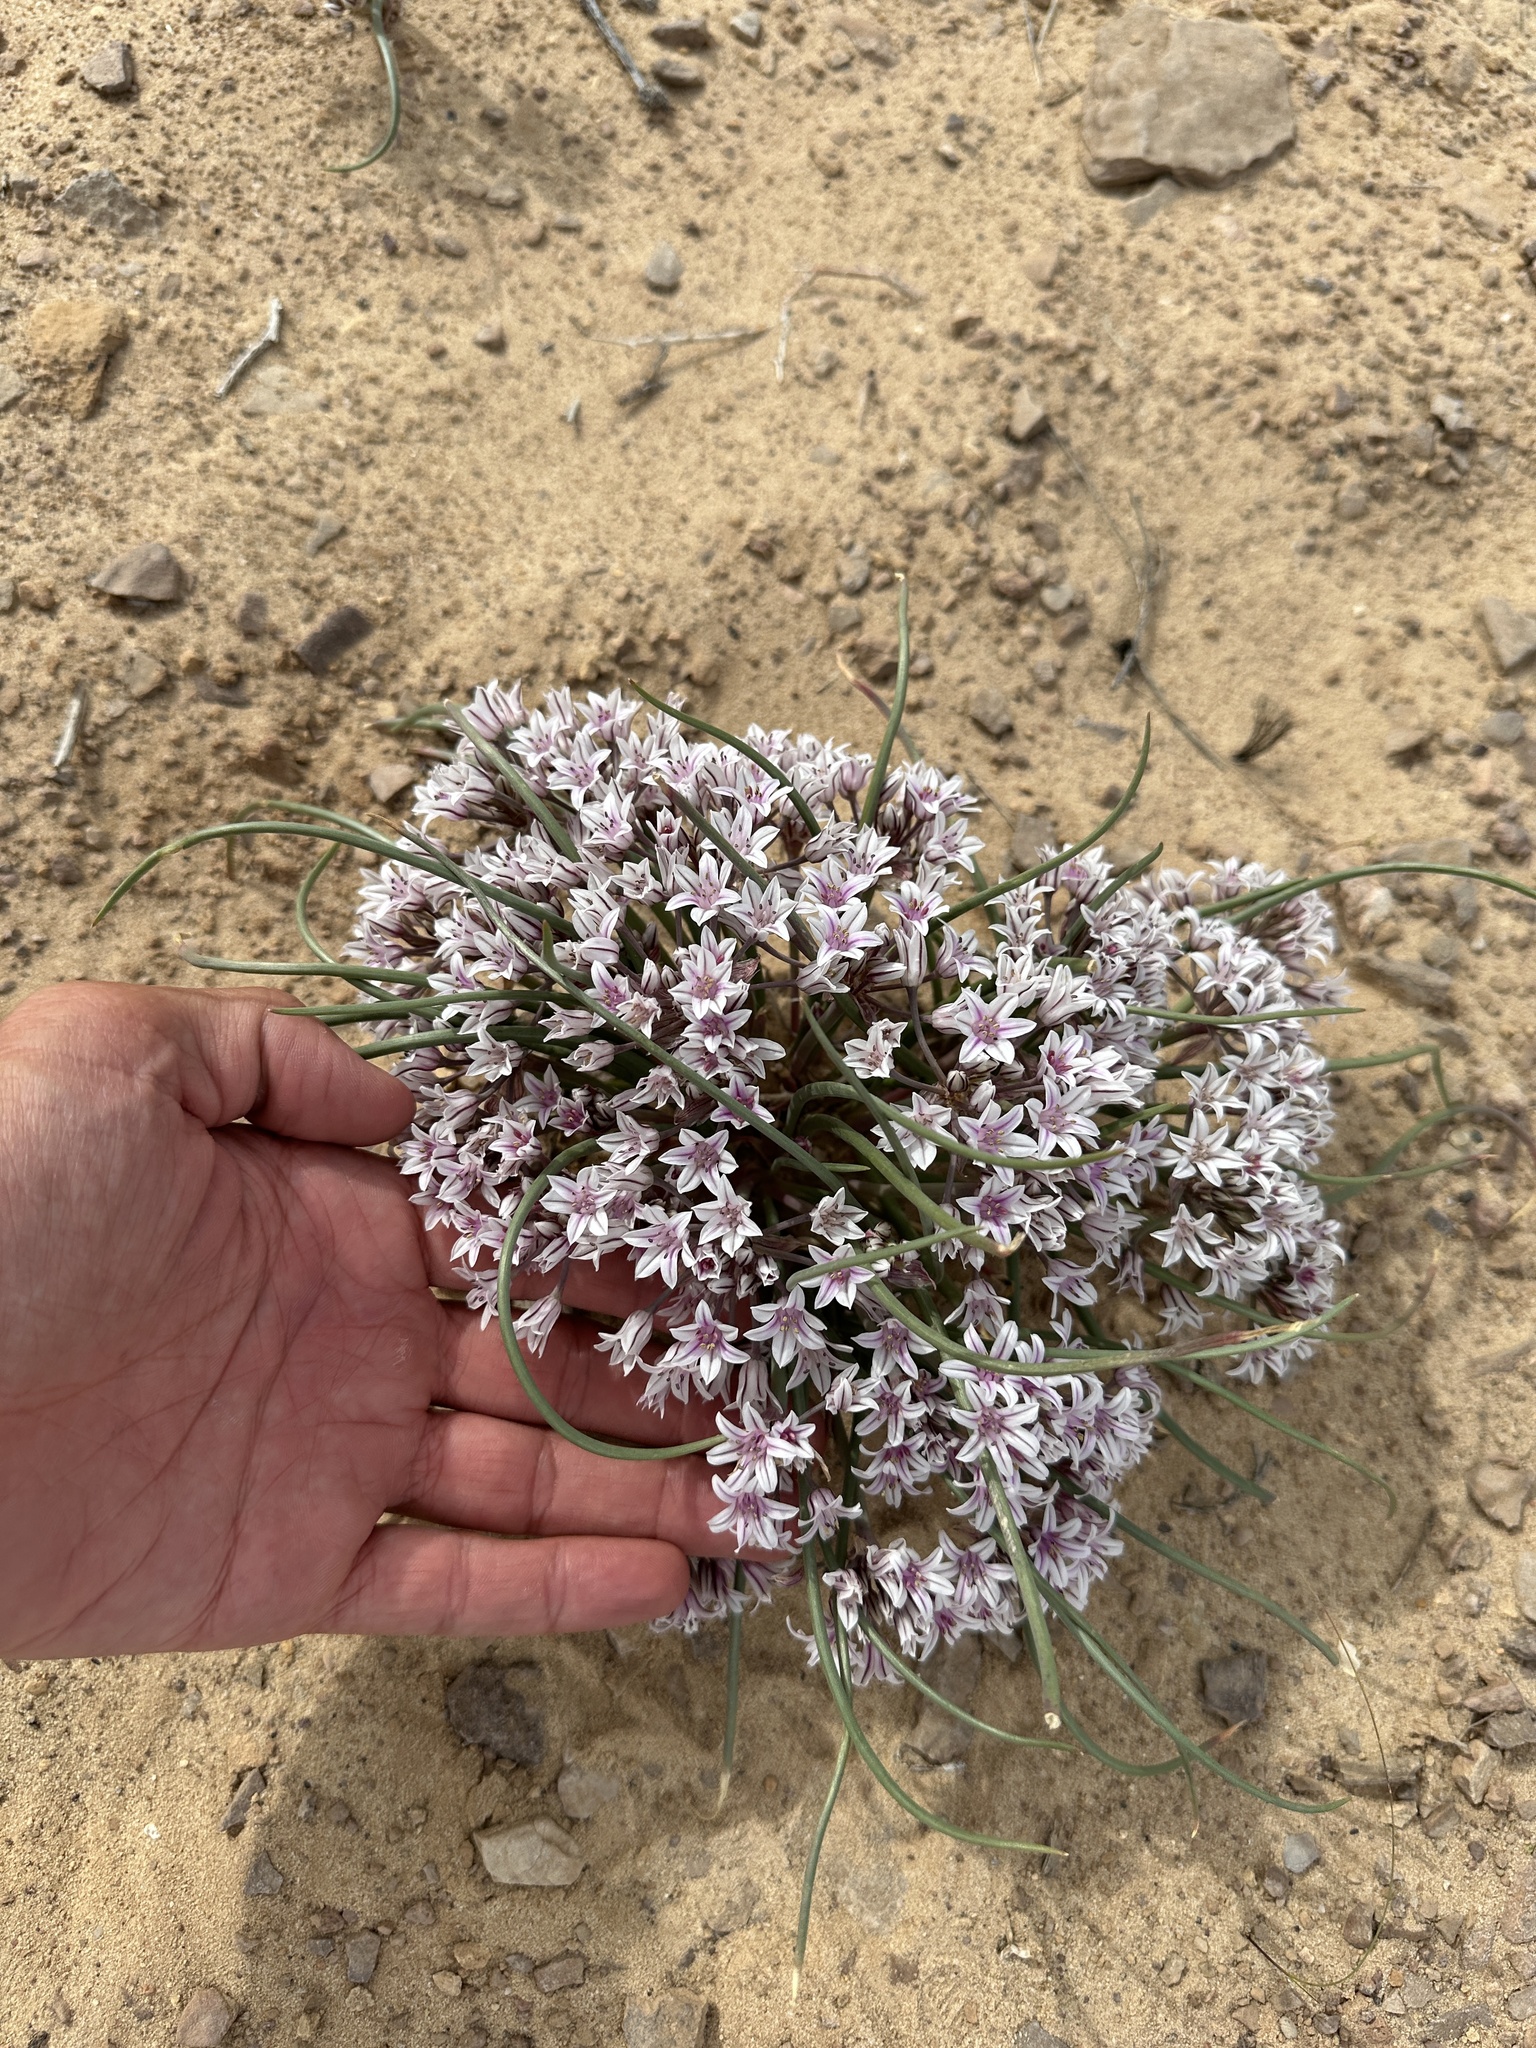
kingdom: Plantae
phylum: Tracheophyta
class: Liliopsida
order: Asparagales
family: Amaryllidaceae
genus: Allium
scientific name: Allium macropetalum
